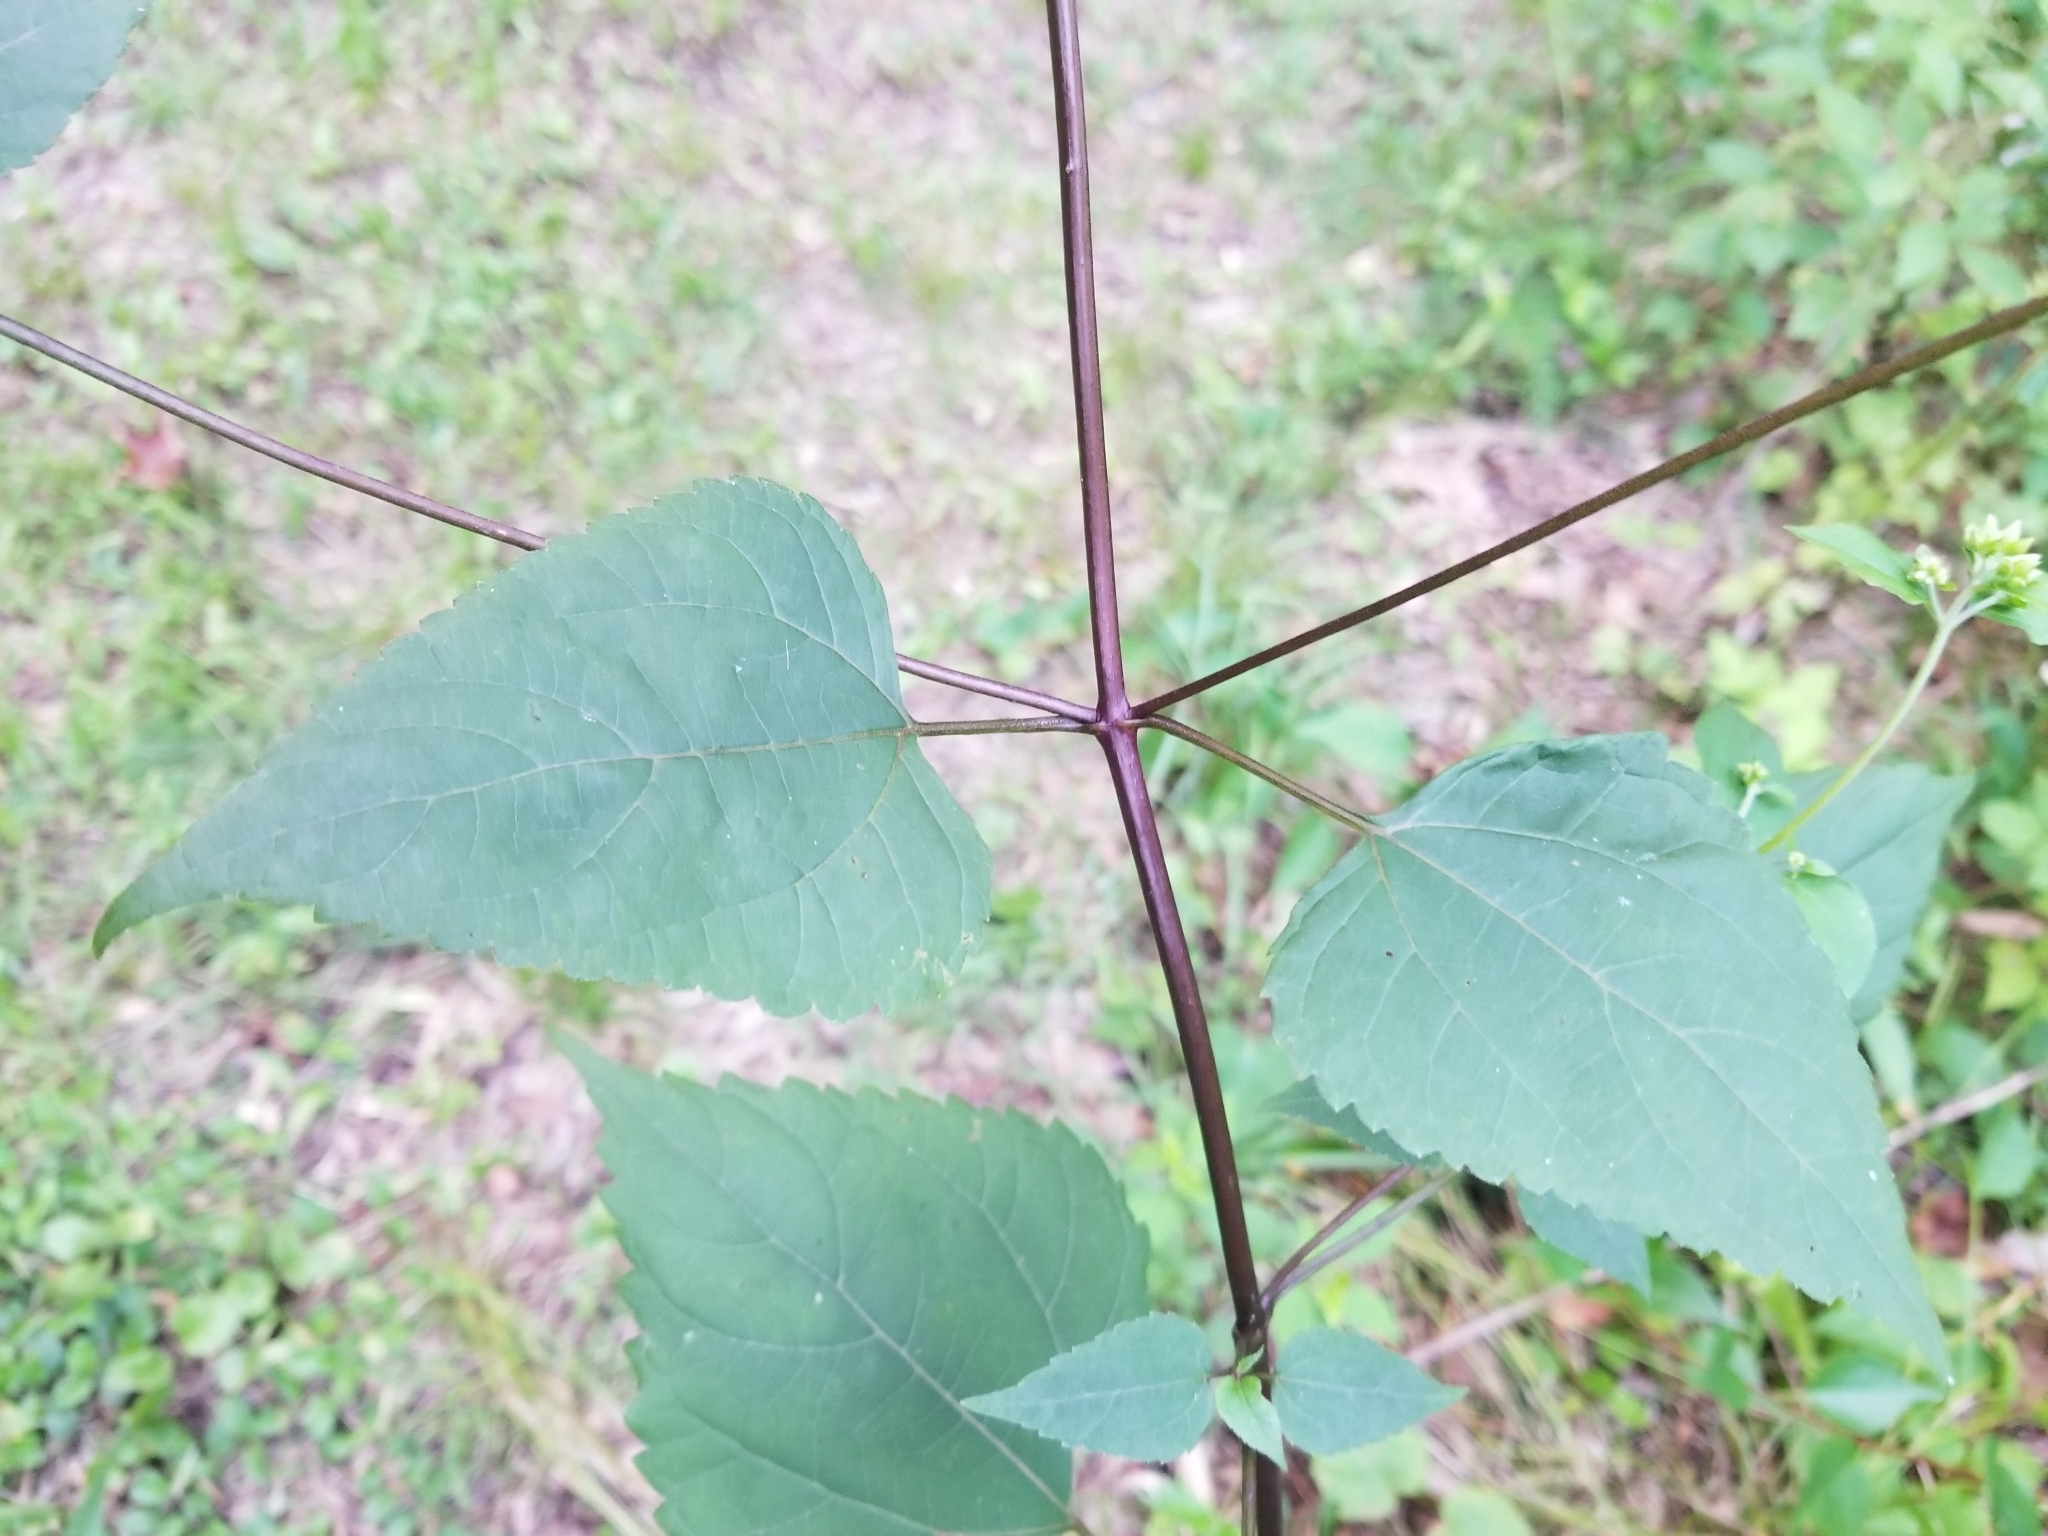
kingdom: Plantae
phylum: Tracheophyta
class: Magnoliopsida
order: Asterales
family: Asteraceae
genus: Ageratina
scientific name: Ageratina altissima
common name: White snakeroot
